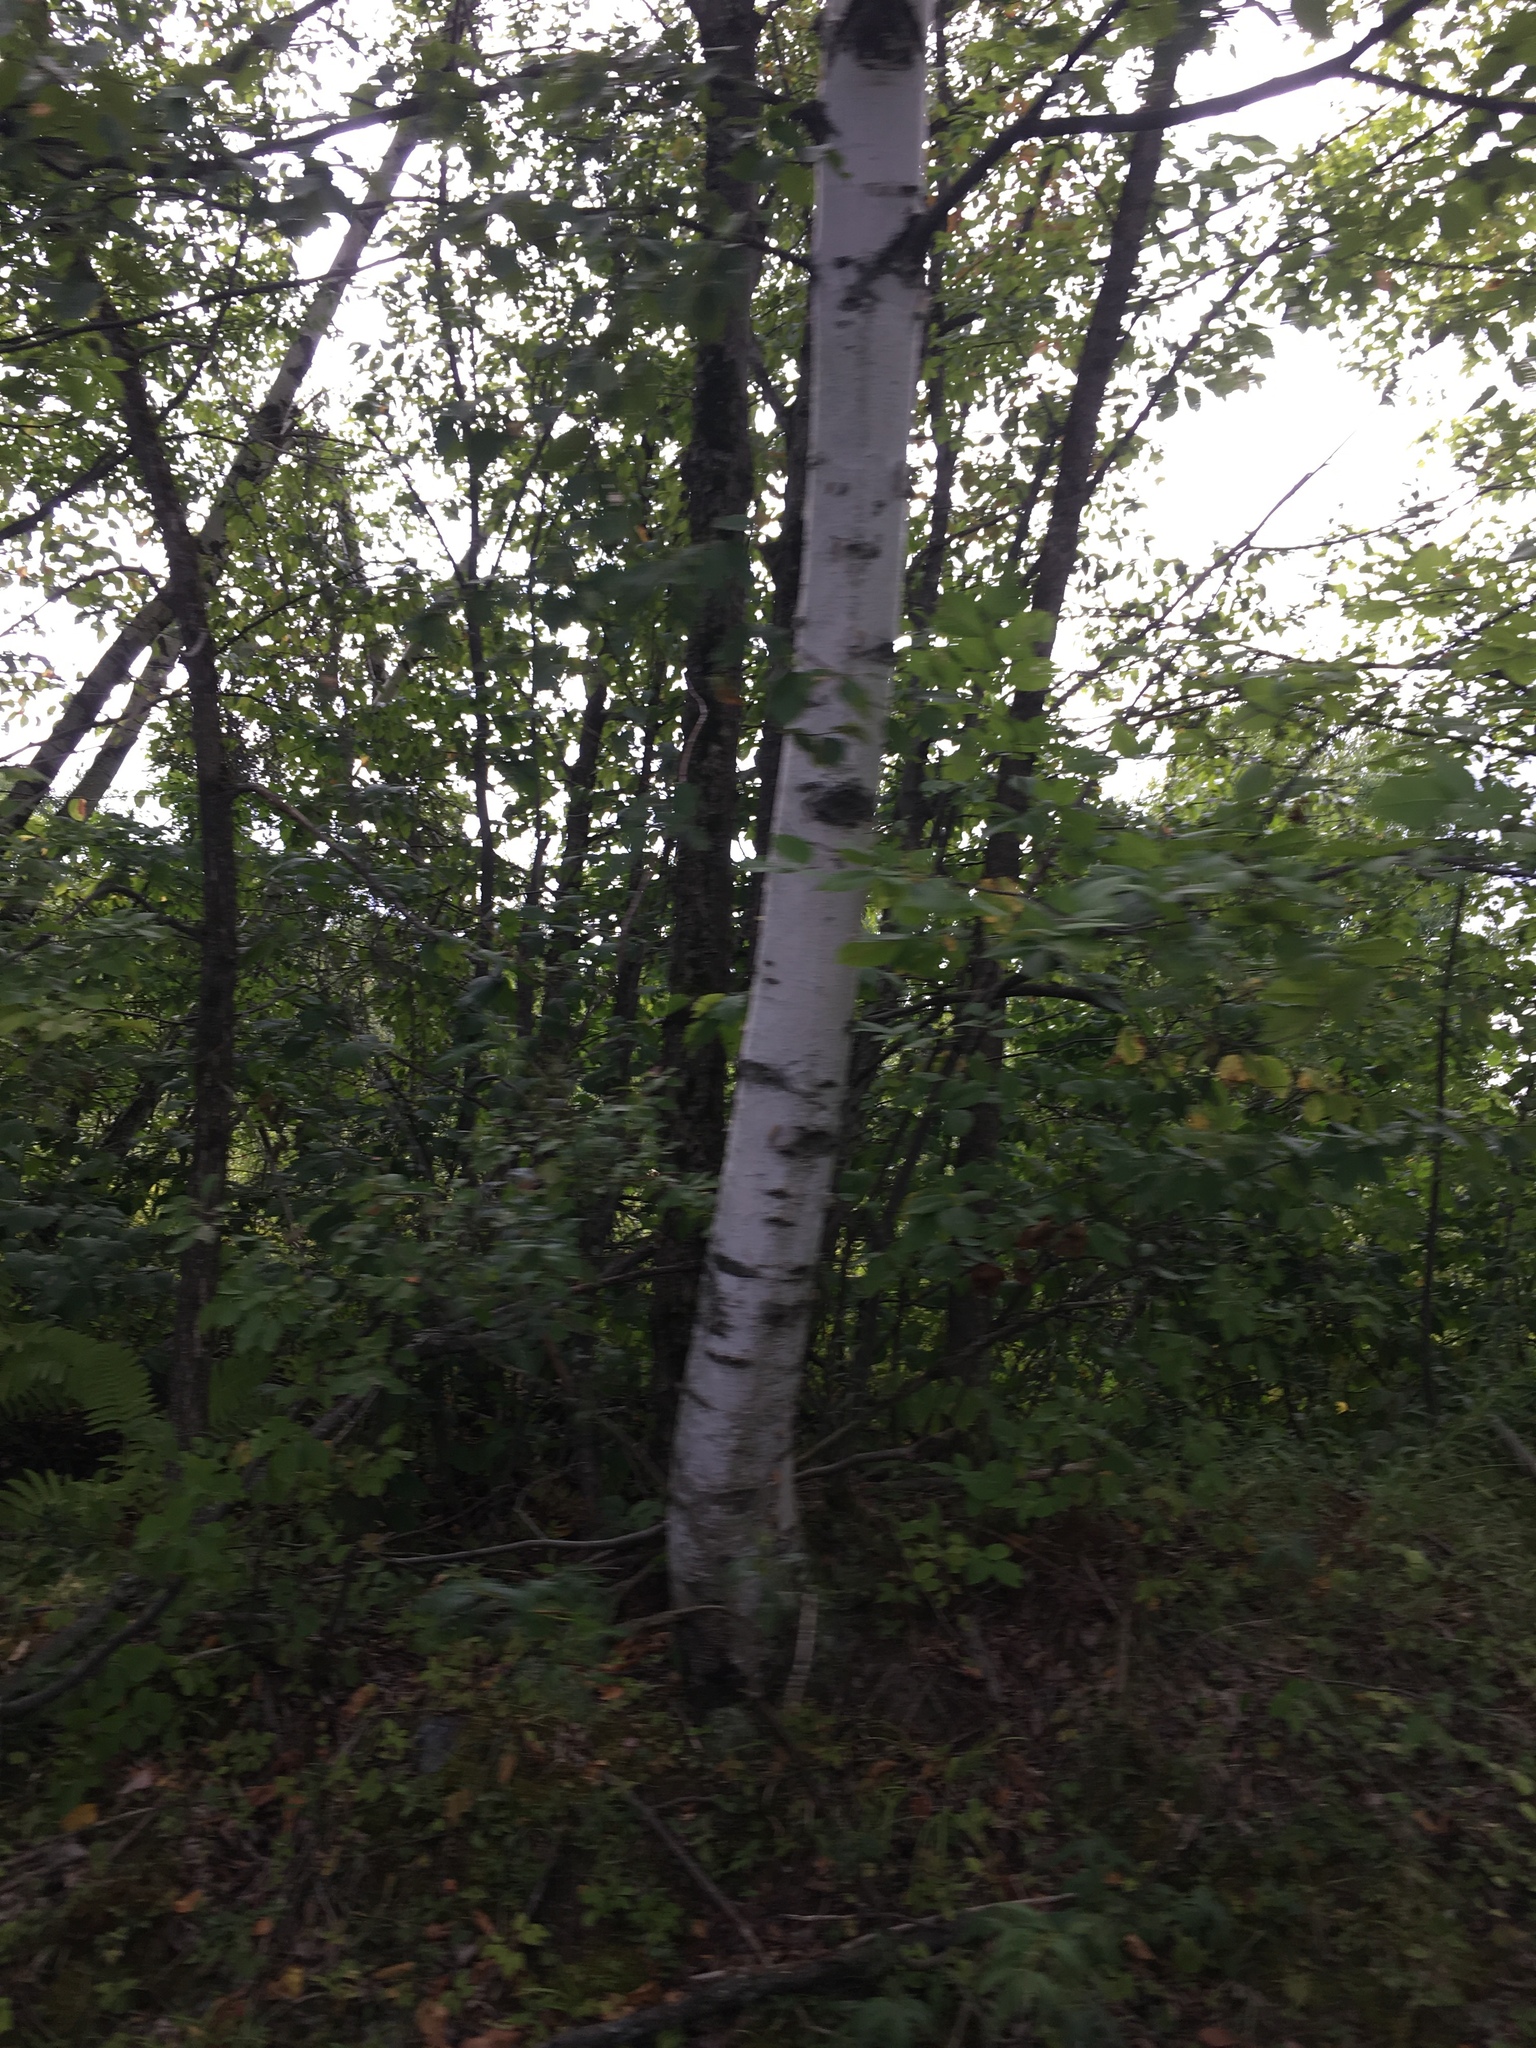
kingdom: Plantae
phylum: Tracheophyta
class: Magnoliopsida
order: Fagales
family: Betulaceae
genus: Betula
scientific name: Betula papyrifera
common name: Paper birch
